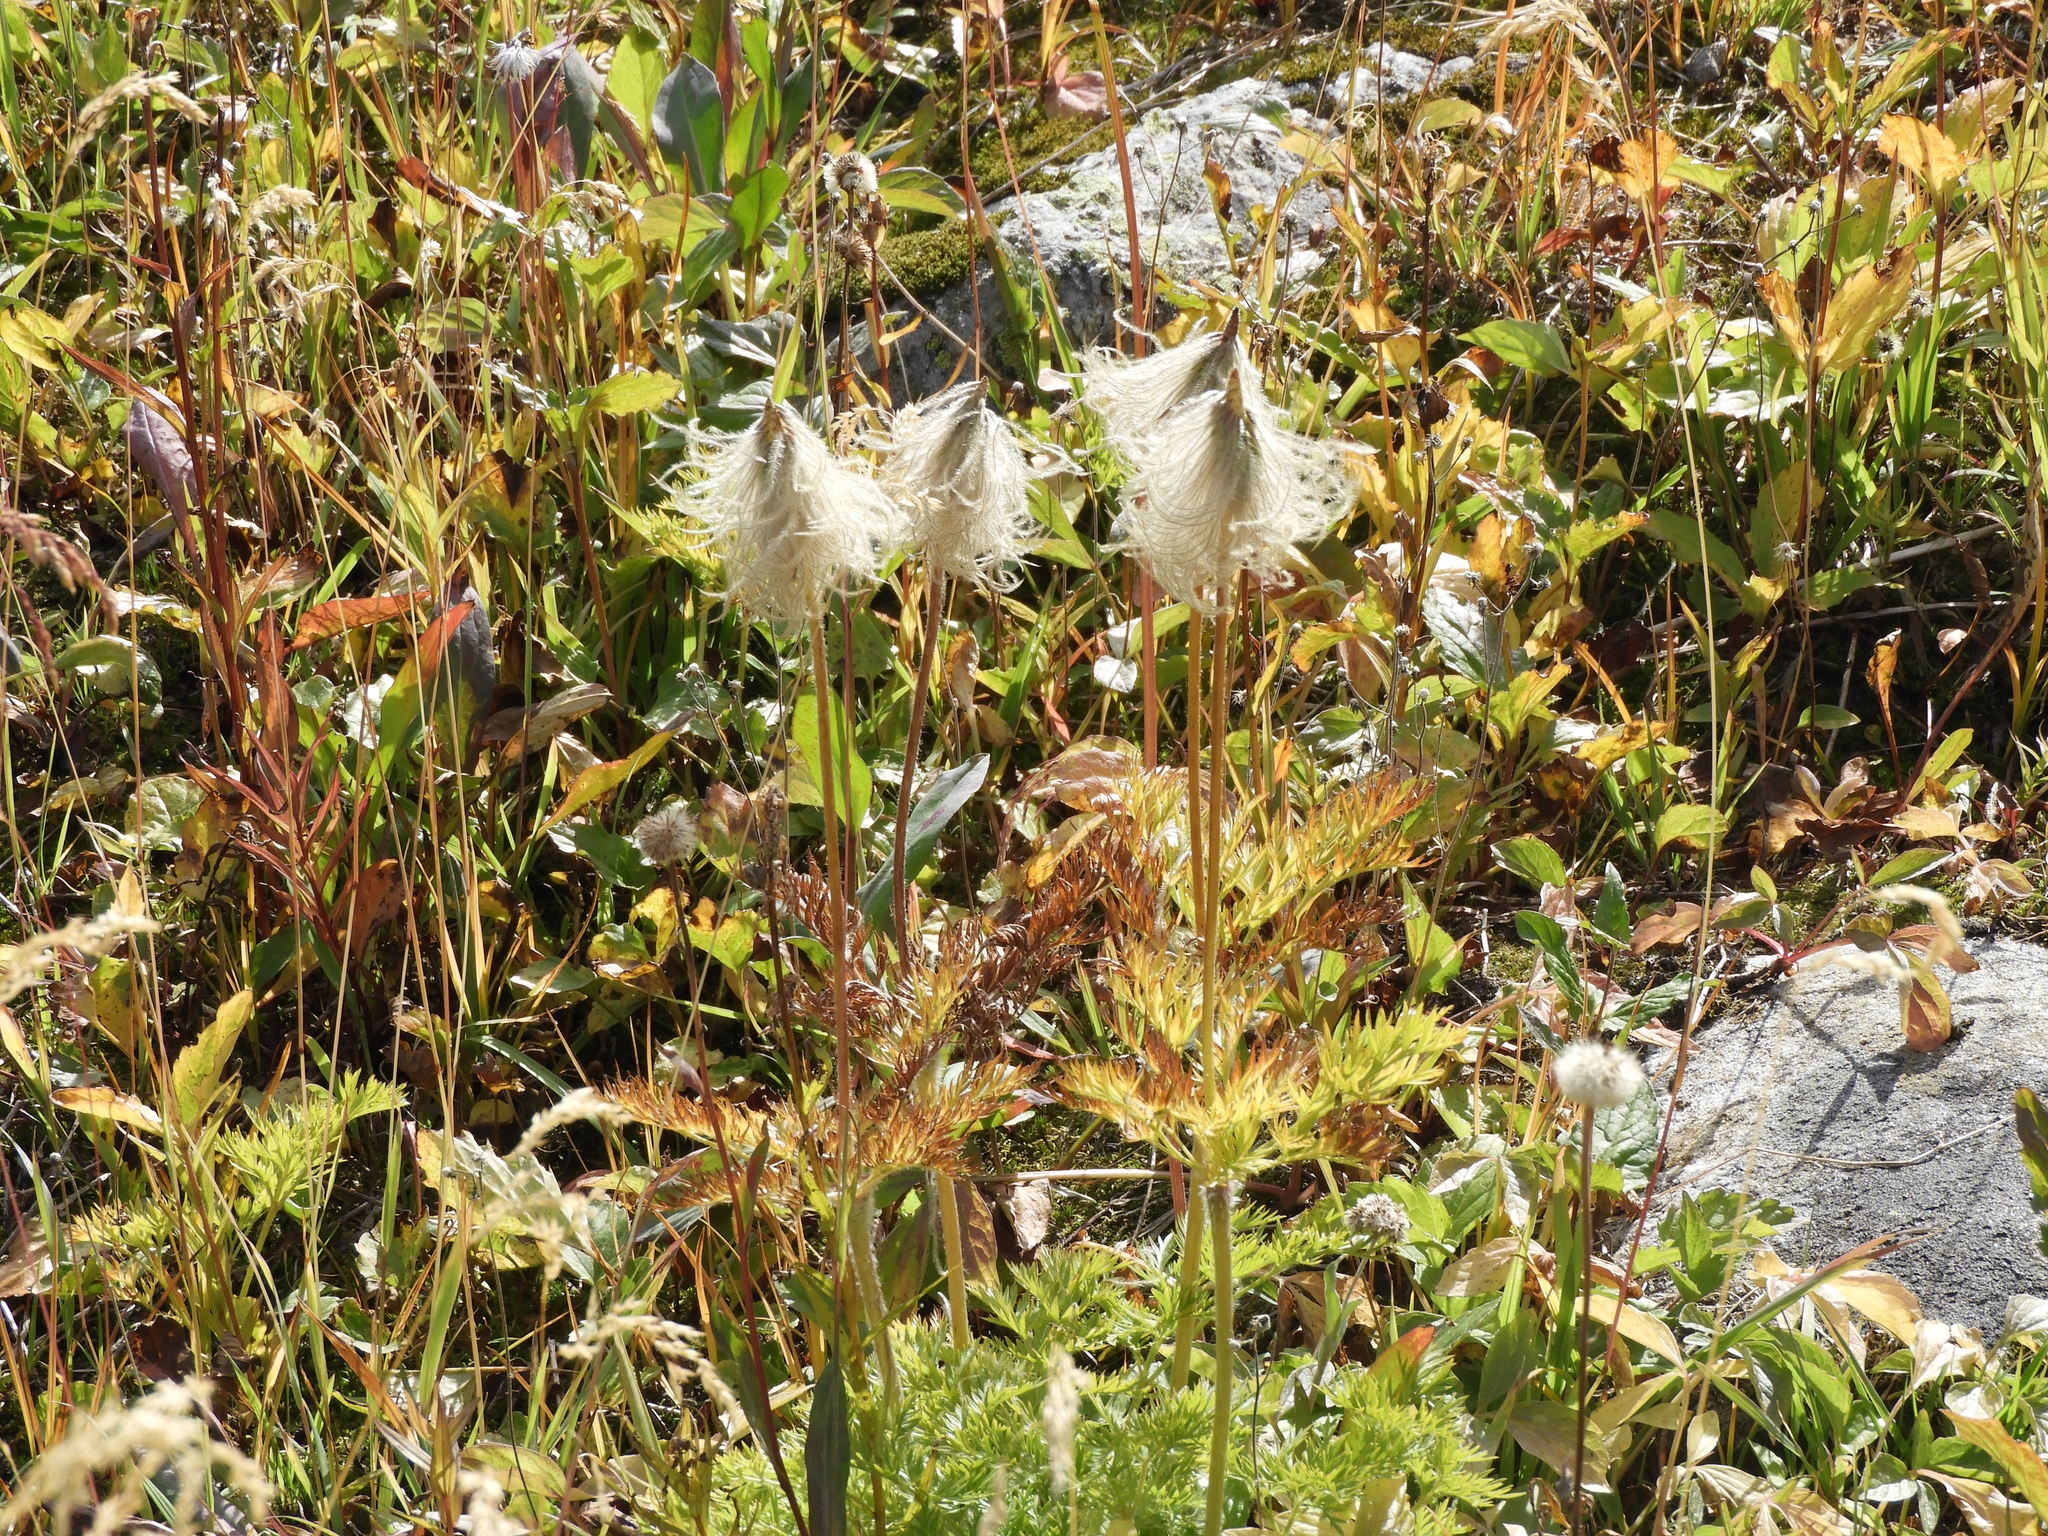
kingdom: Plantae
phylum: Tracheophyta
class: Magnoliopsida
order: Ranunculales
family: Ranunculaceae
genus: Pulsatilla
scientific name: Pulsatilla occidentalis
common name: Mountain pasqueflower
